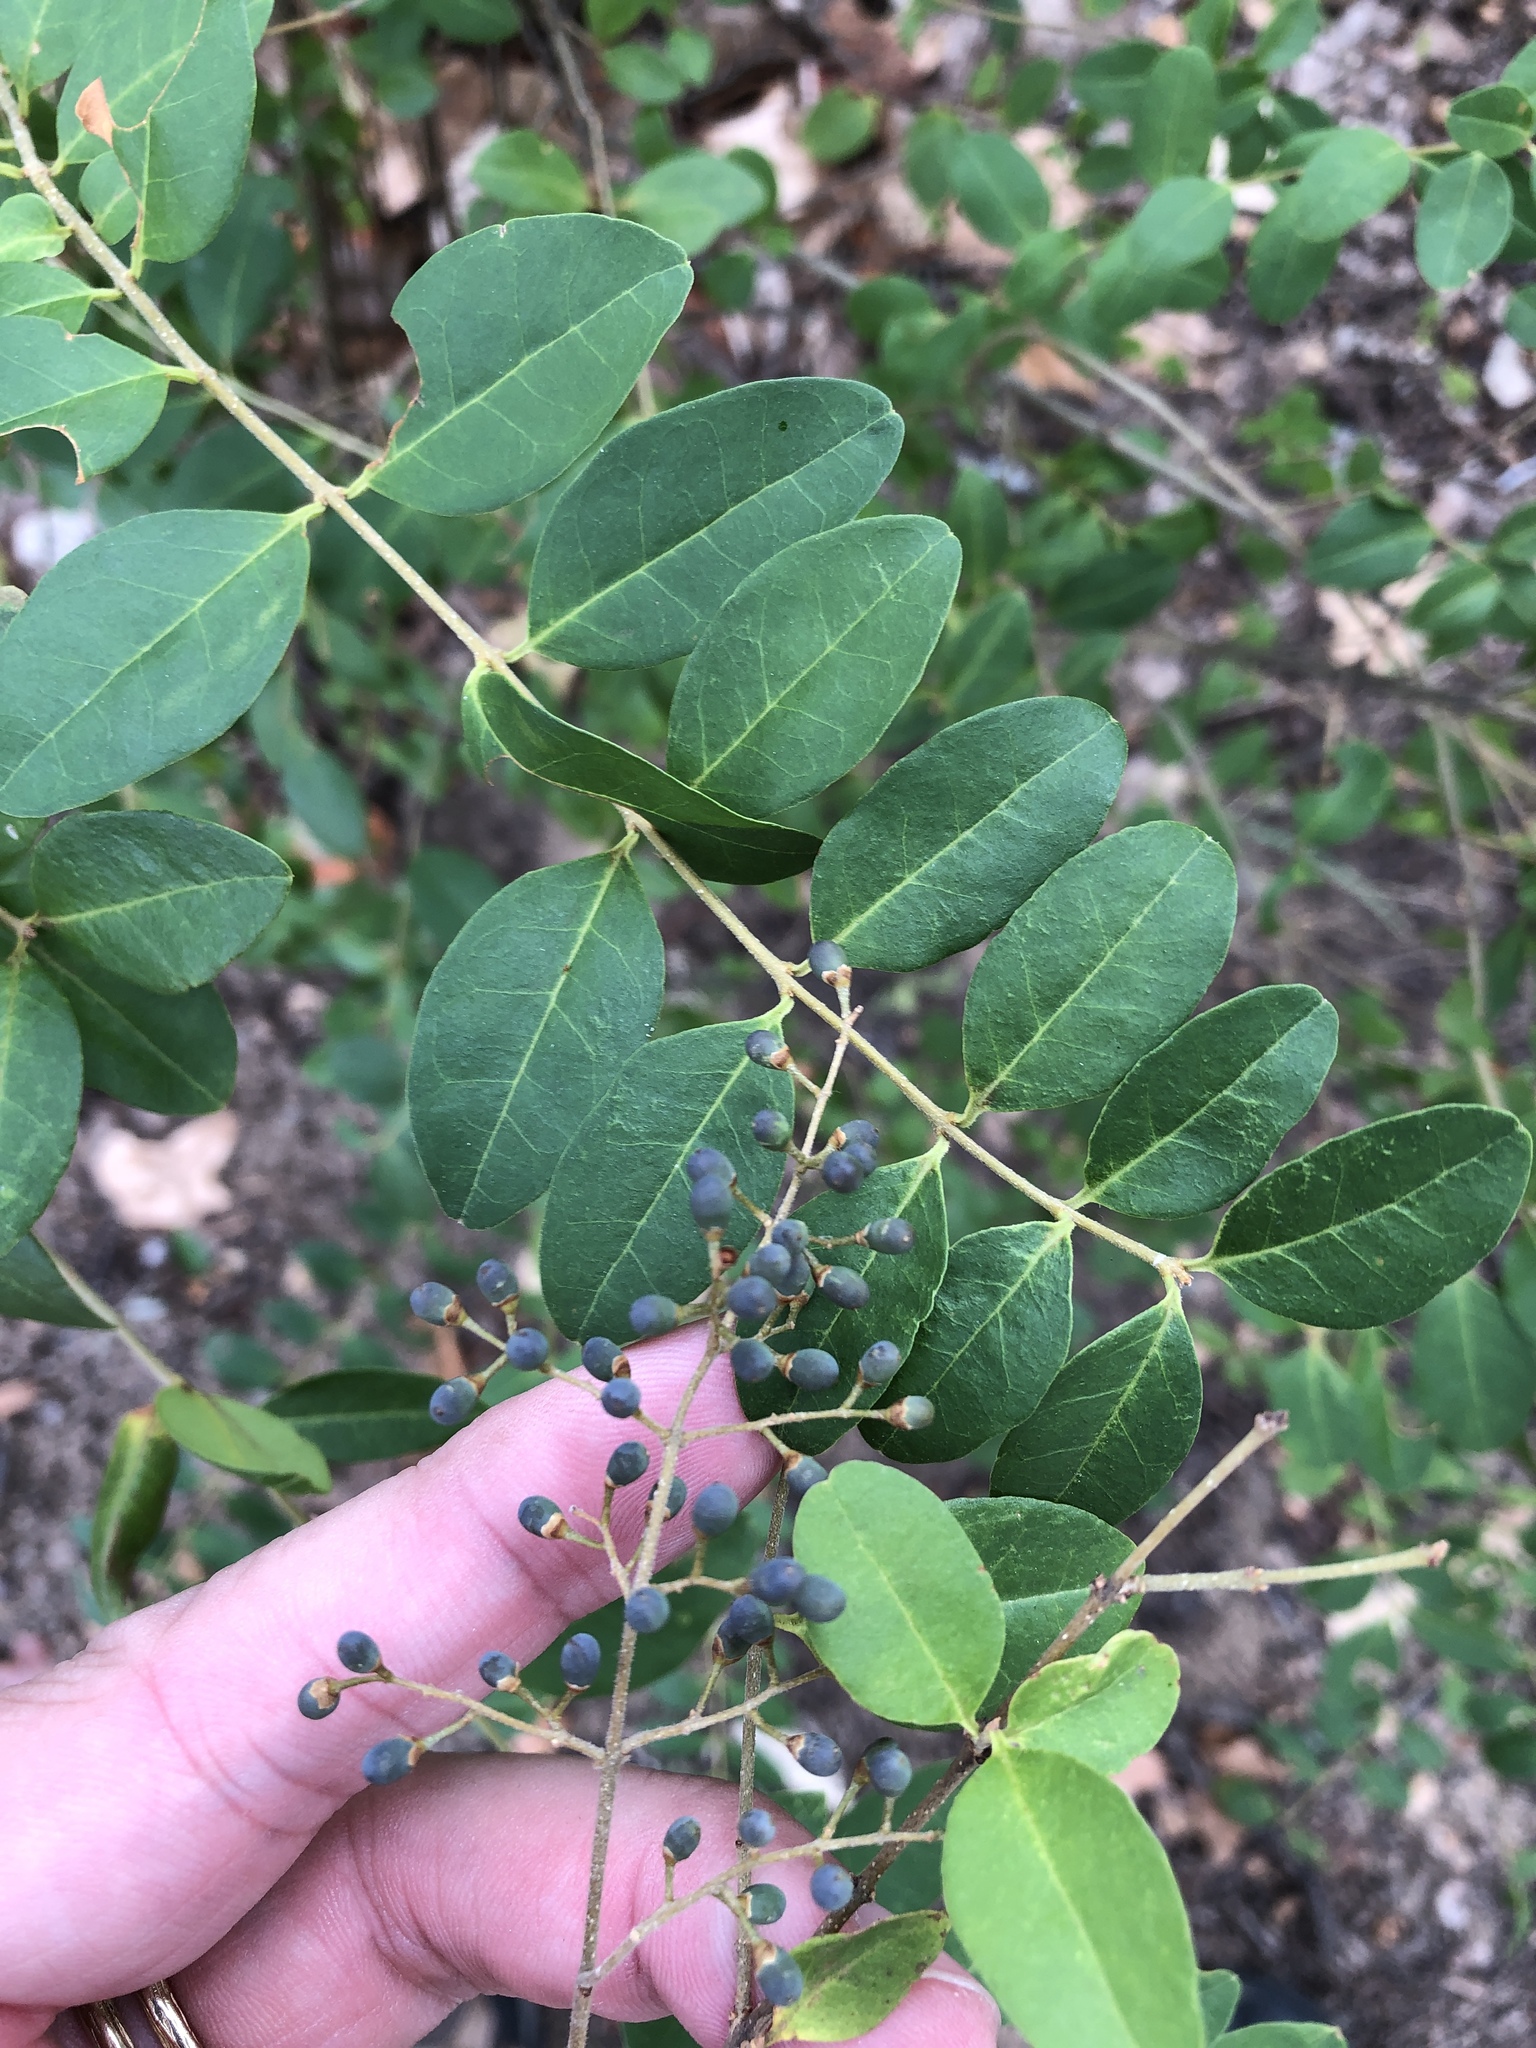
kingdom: Plantae
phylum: Tracheophyta
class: Magnoliopsida
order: Lamiales
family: Oleaceae
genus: Ligustrum
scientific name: Ligustrum sinense
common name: Chinese privet
